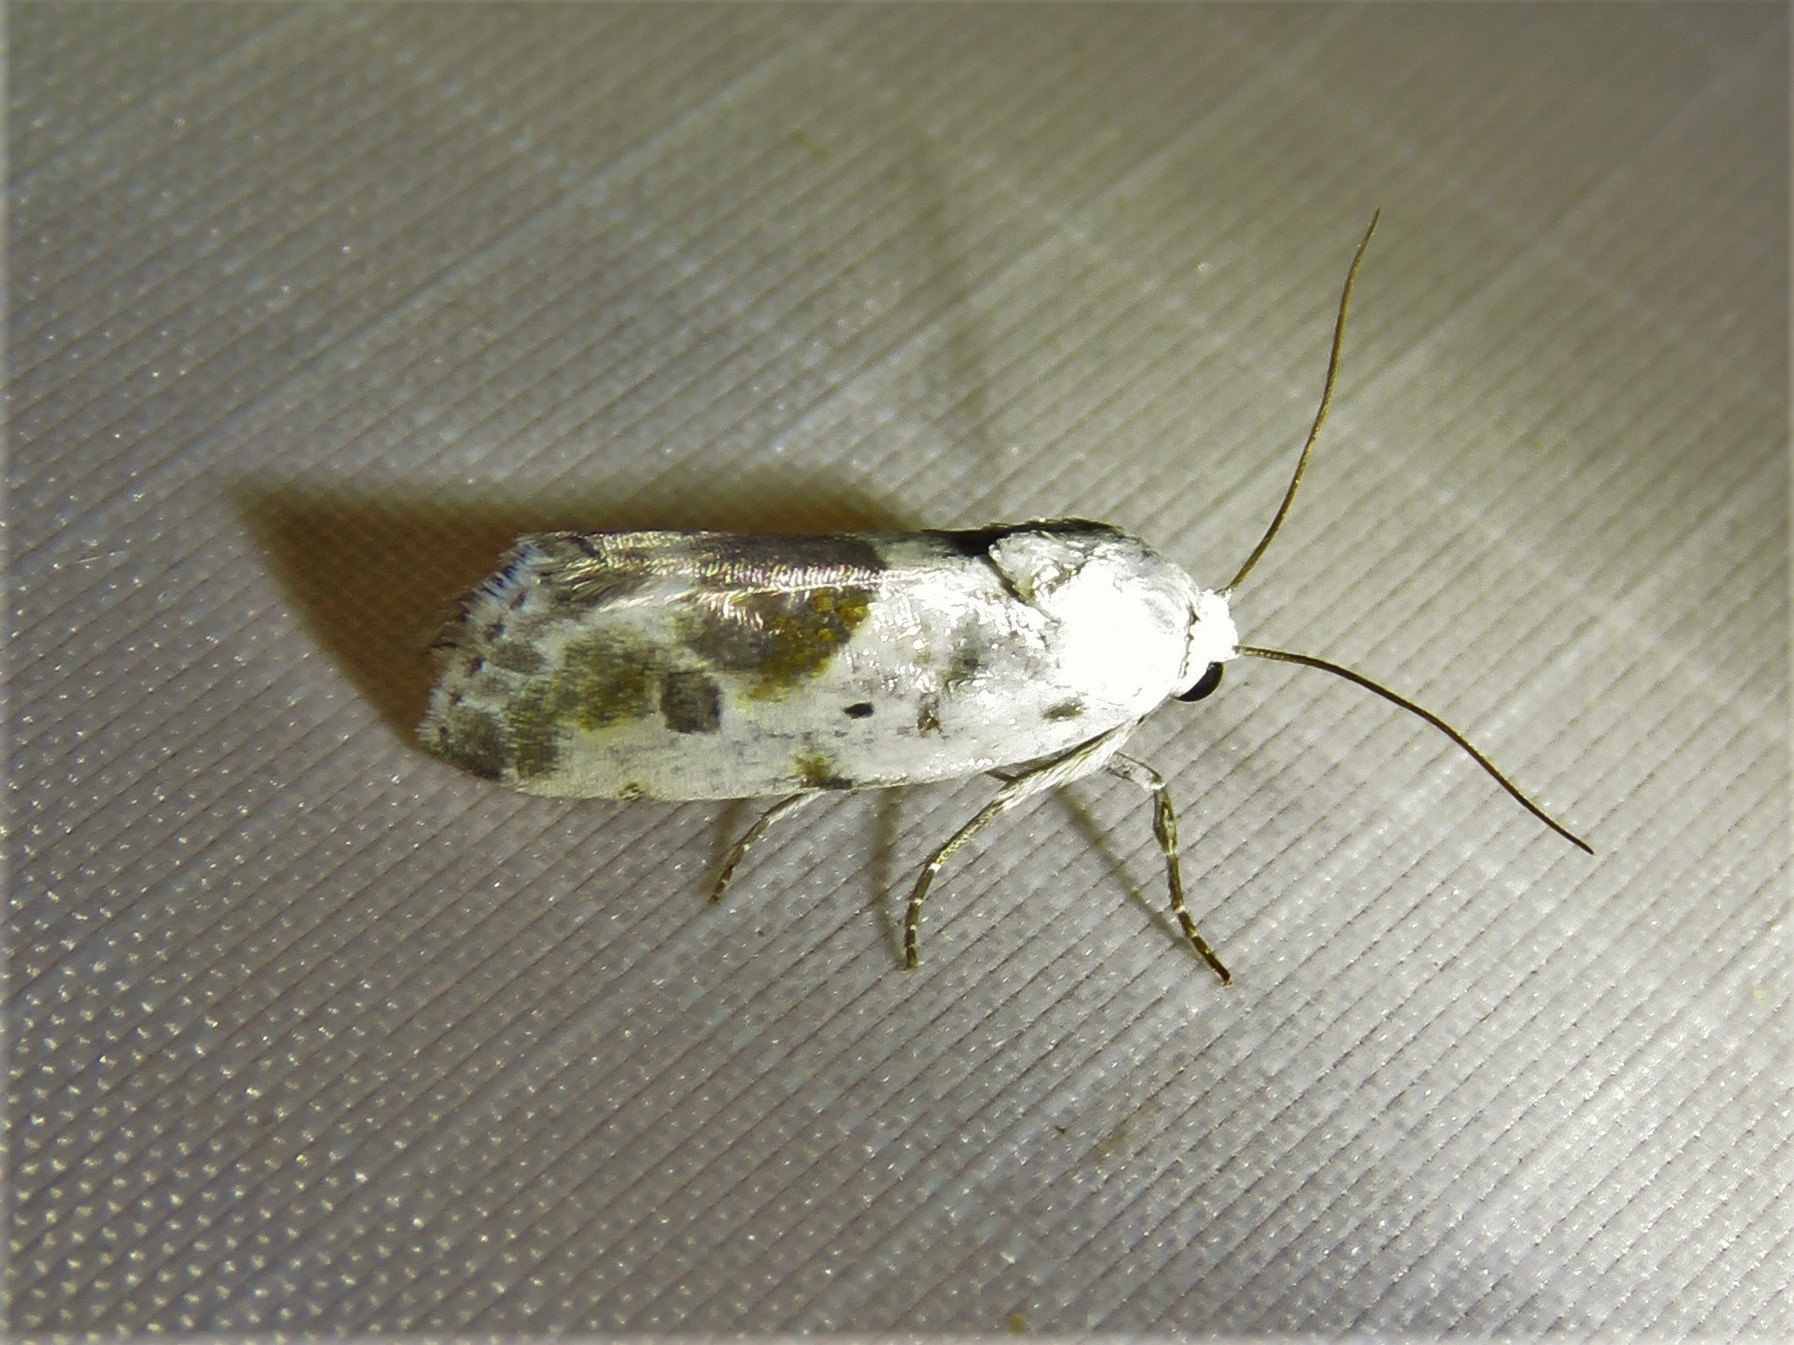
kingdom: Animalia
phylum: Arthropoda
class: Insecta
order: Lepidoptera
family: Noctuidae
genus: Acontia
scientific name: Acontia candefacta
